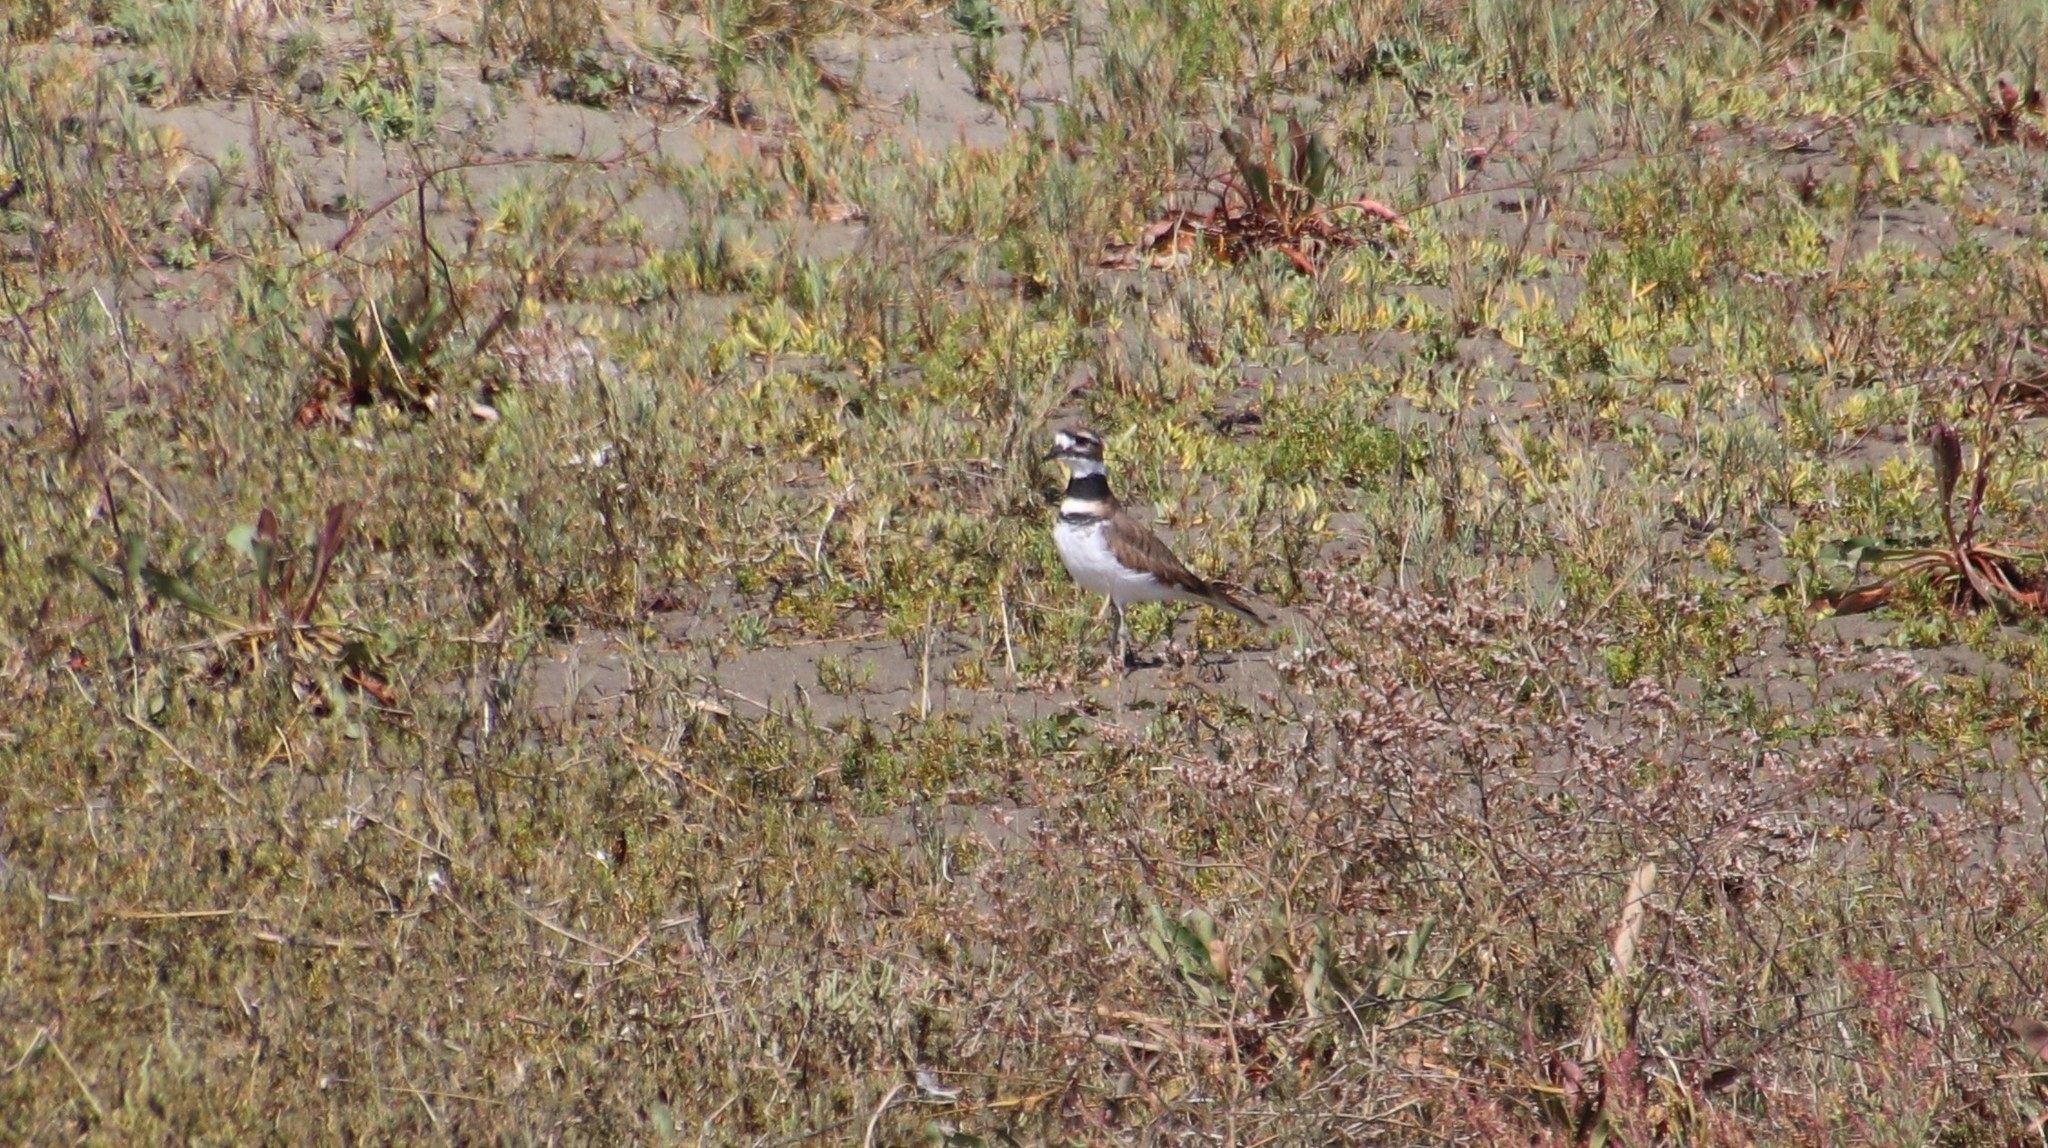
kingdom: Animalia
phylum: Chordata
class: Aves
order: Charadriiformes
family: Charadriidae
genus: Charadrius
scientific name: Charadrius vociferus
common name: Killdeer
